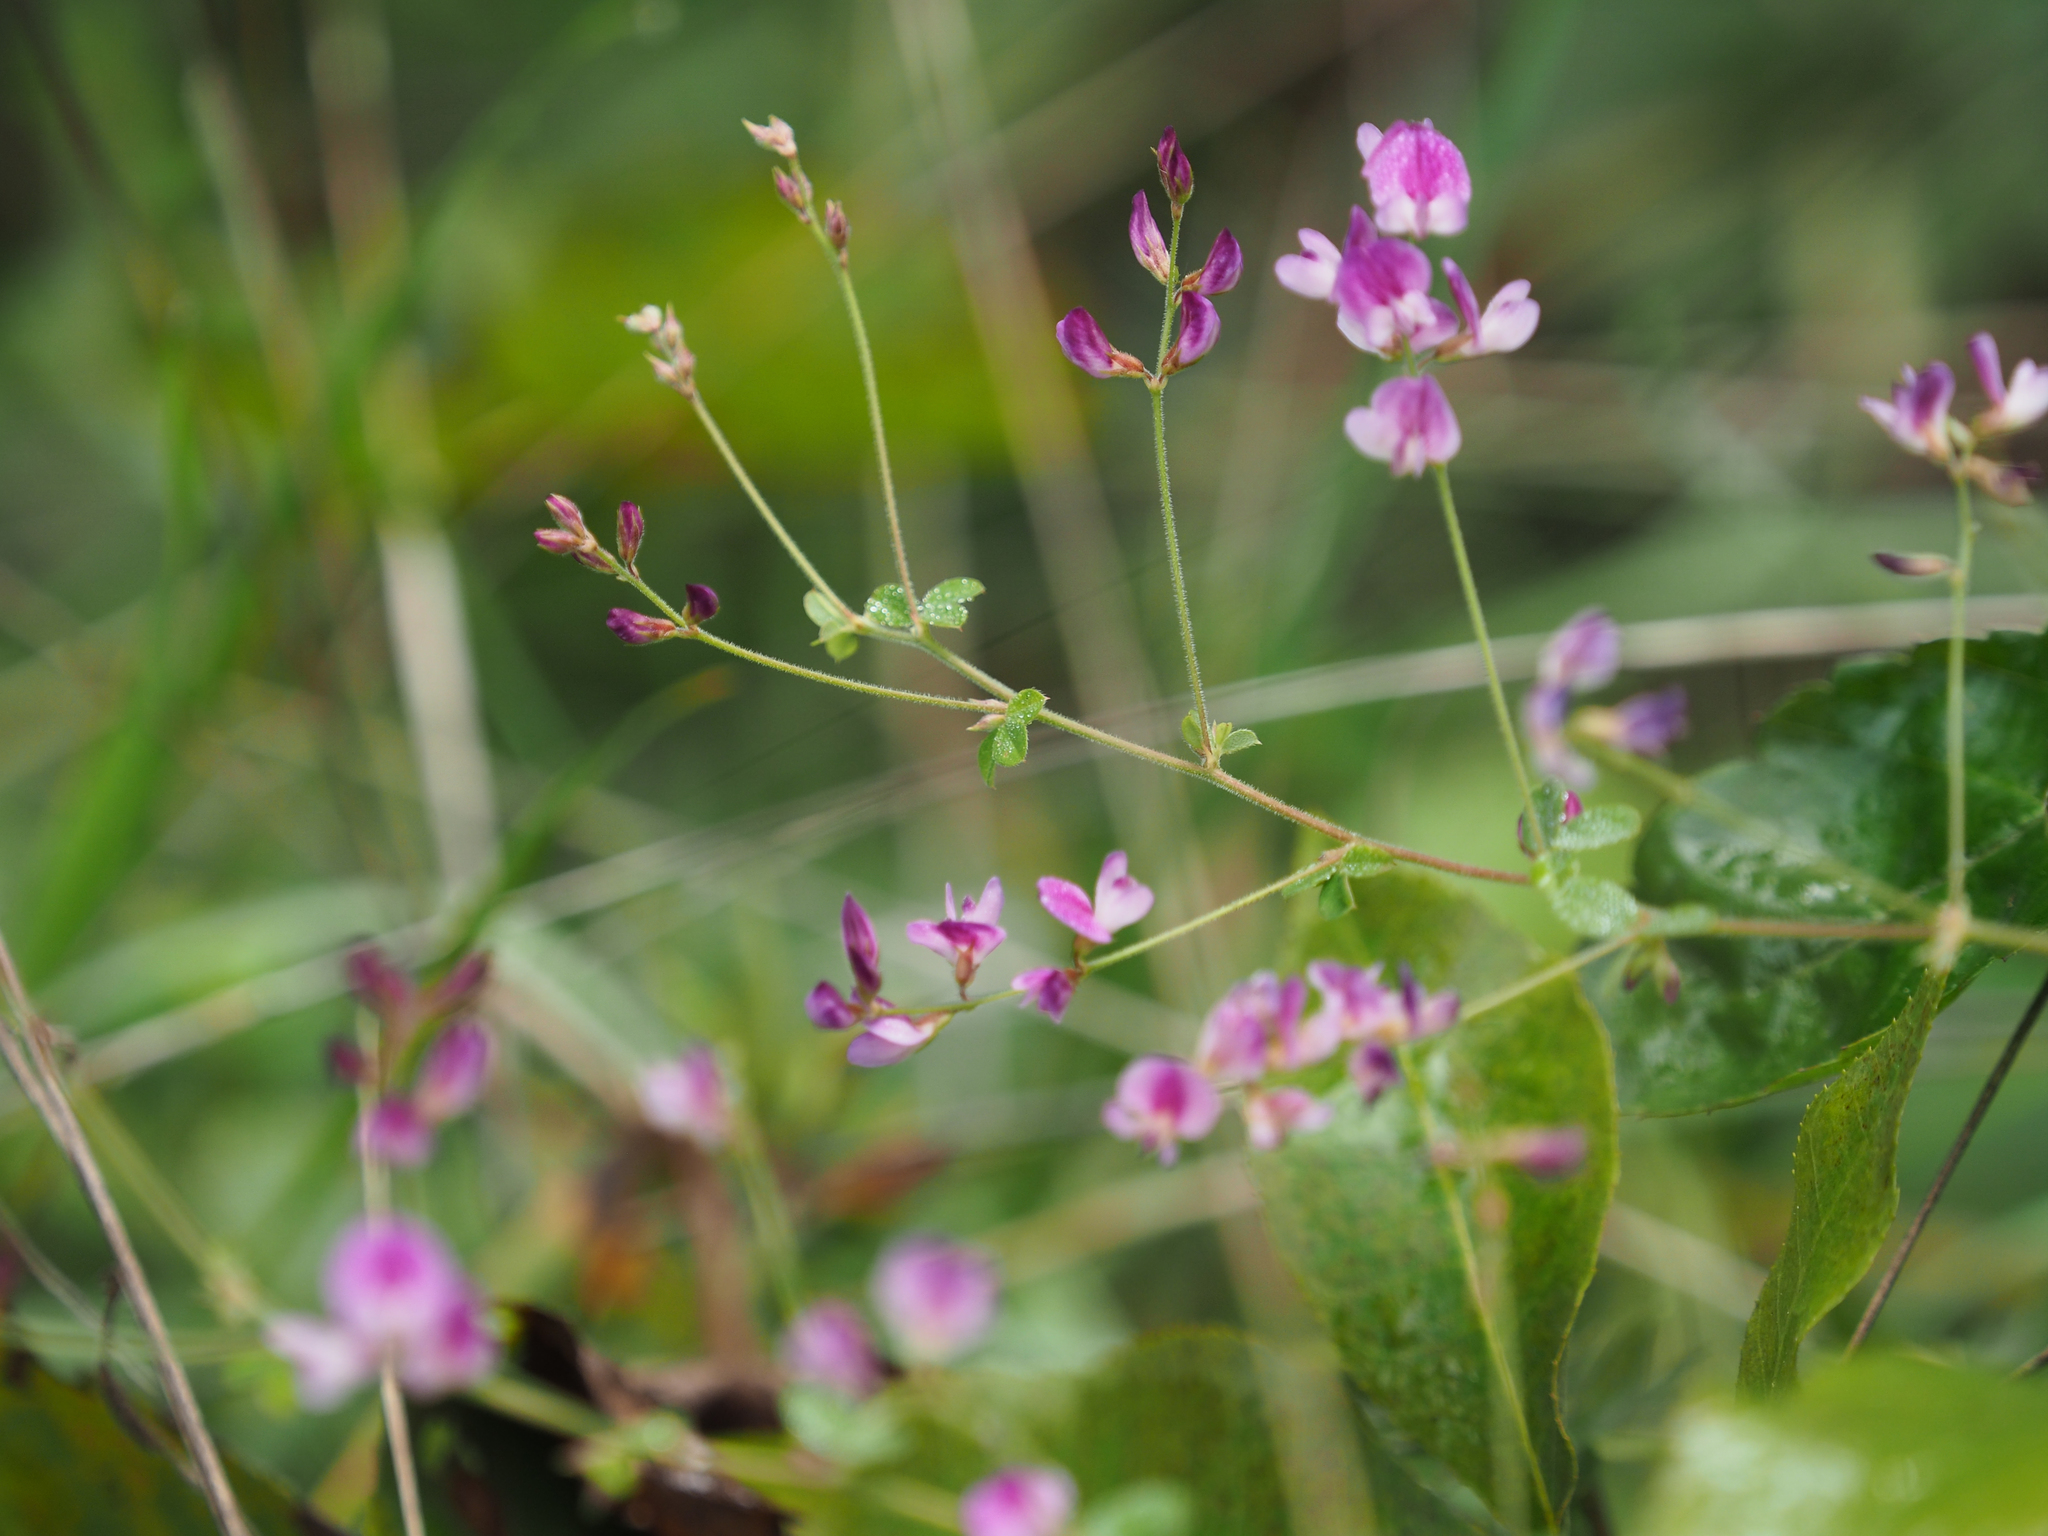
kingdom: Plantae
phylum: Tracheophyta
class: Magnoliopsida
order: Fabales
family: Fabaceae
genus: Lespedeza
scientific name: Lespedeza procumbens
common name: Downy trailing bush-clover
